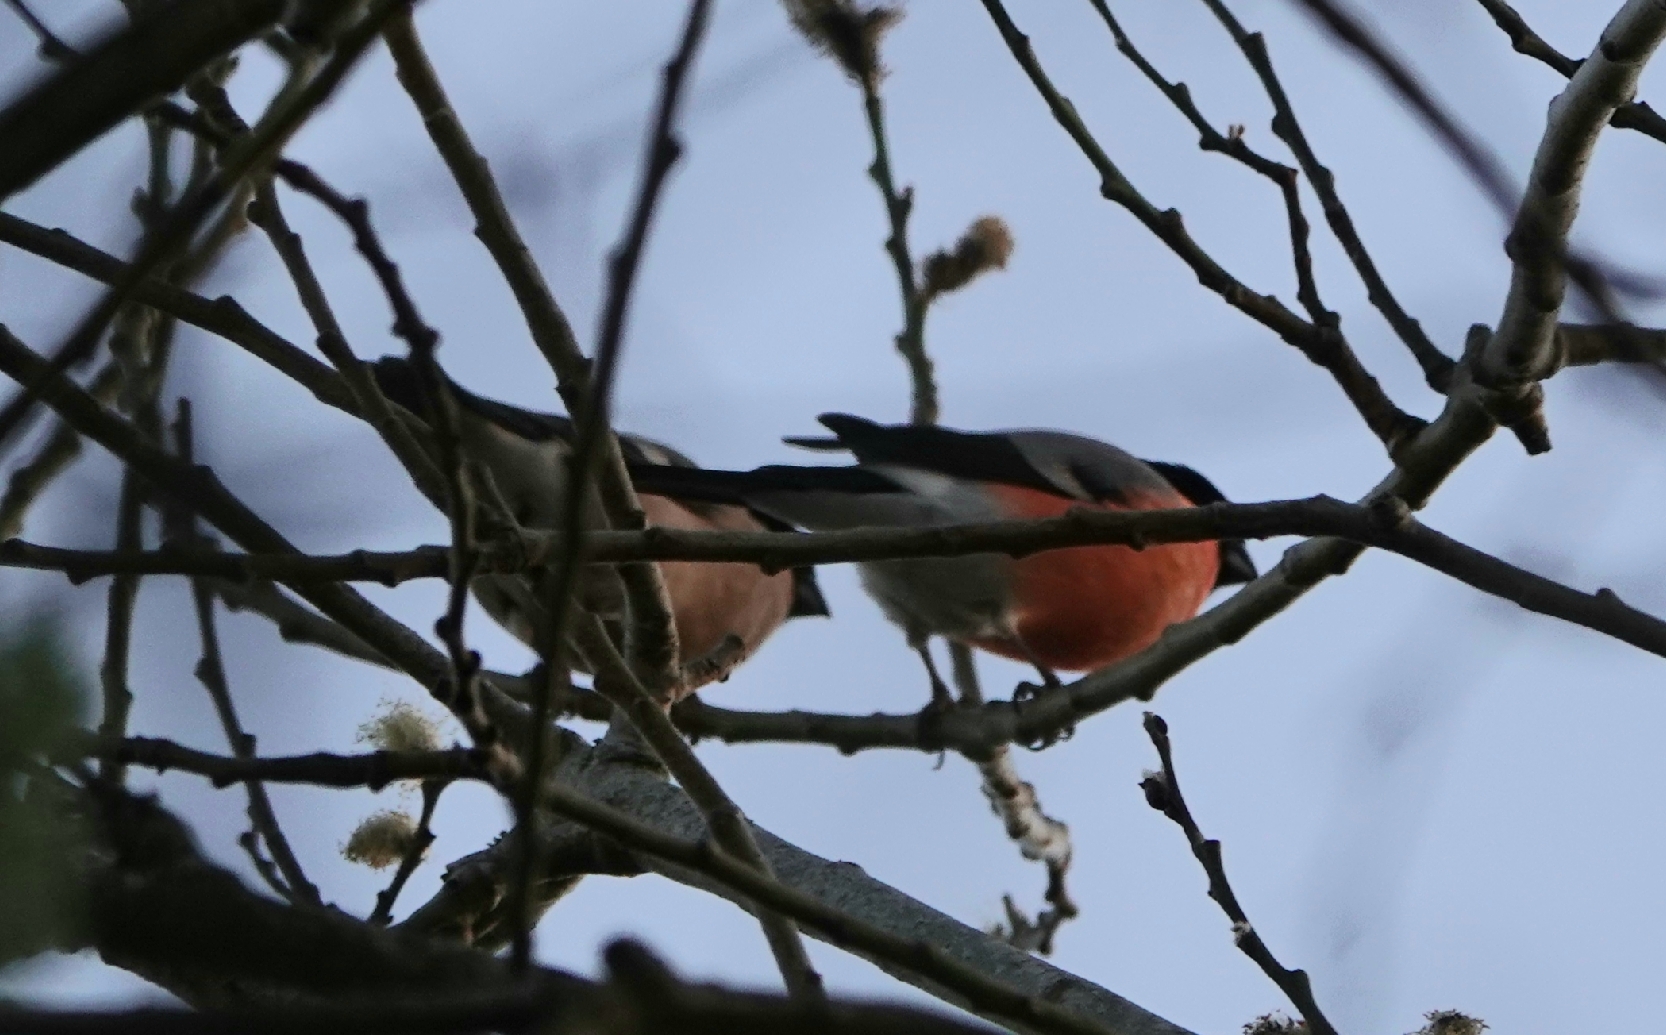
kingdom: Animalia
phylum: Chordata
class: Aves
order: Passeriformes
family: Fringillidae
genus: Pyrrhula
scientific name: Pyrrhula pyrrhula
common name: Eurasian bullfinch
